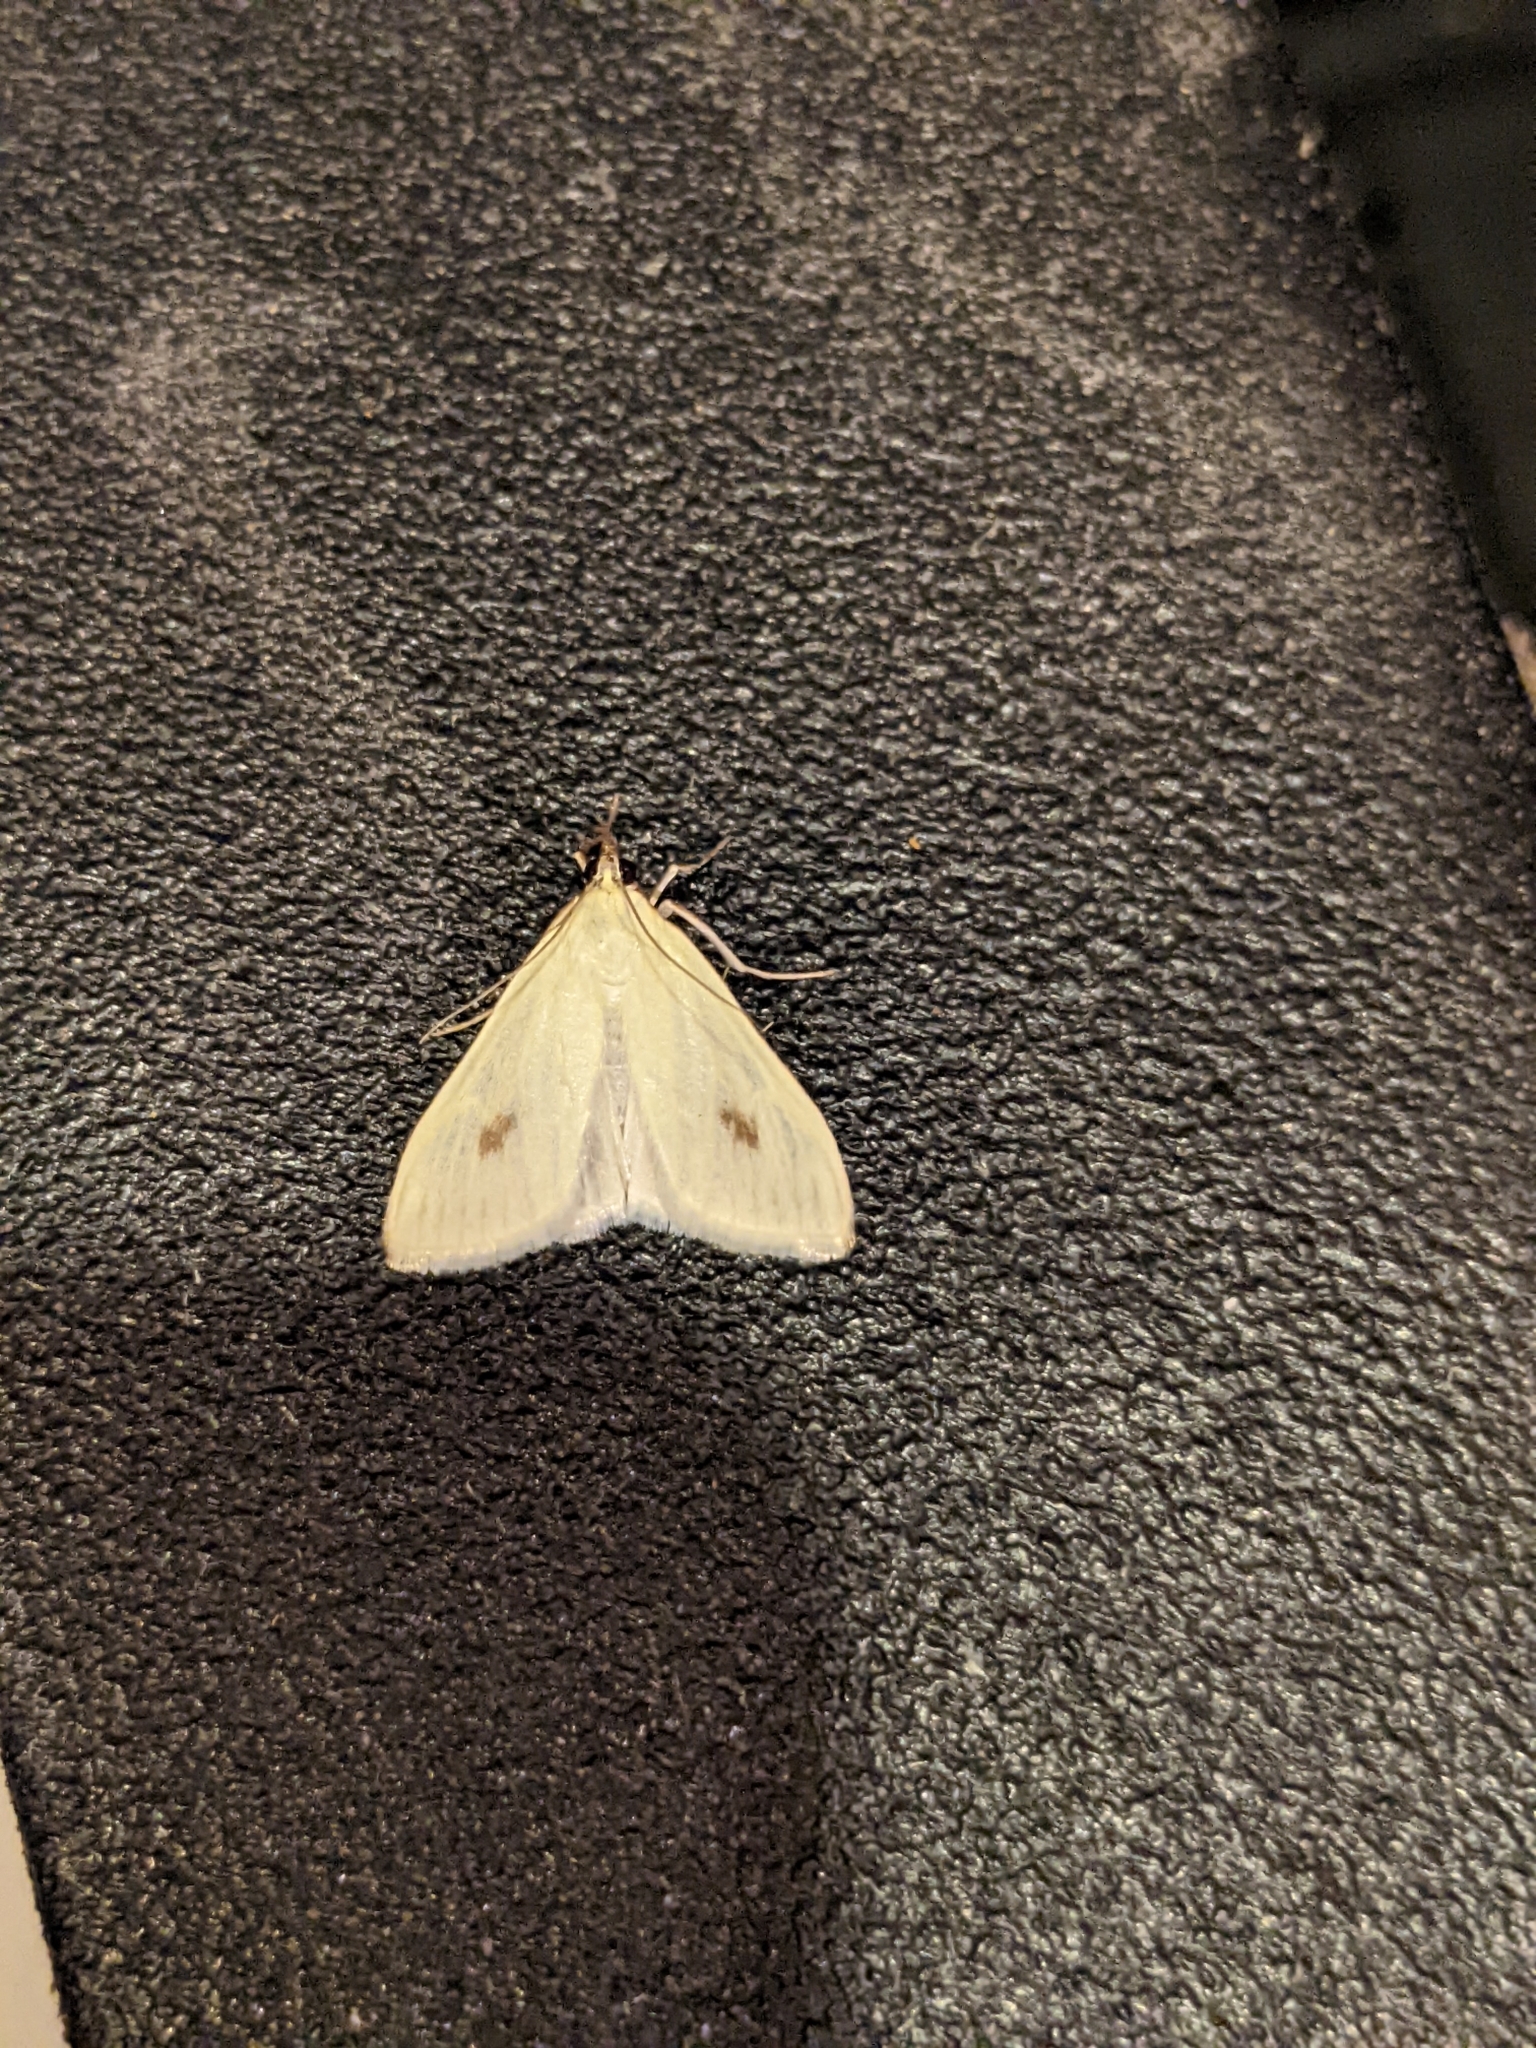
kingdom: Animalia
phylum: Arthropoda
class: Insecta
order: Lepidoptera
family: Crambidae
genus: Sitochroa
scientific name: Sitochroa palealis
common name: Greenish-yellow sitochroa moth
